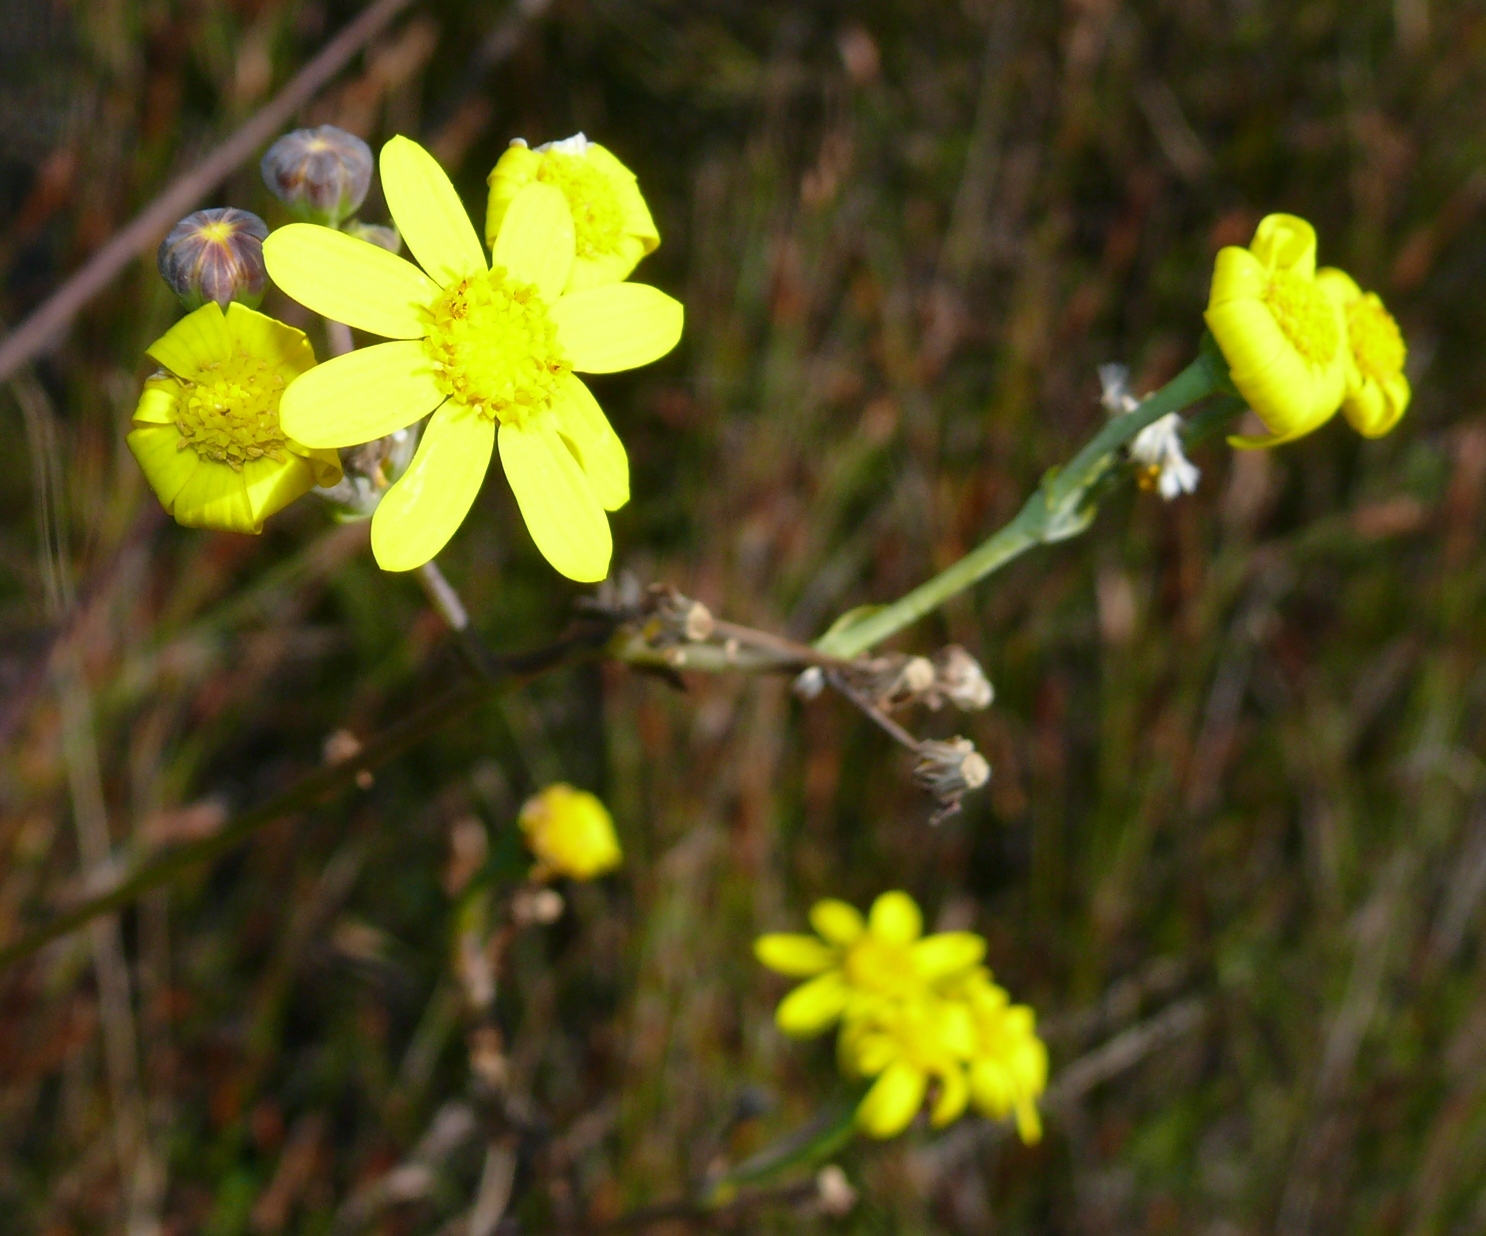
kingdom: Plantae
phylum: Tracheophyta
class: Magnoliopsida
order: Asterales
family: Asteraceae
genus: Othonna
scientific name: Othonna quinquedentata
